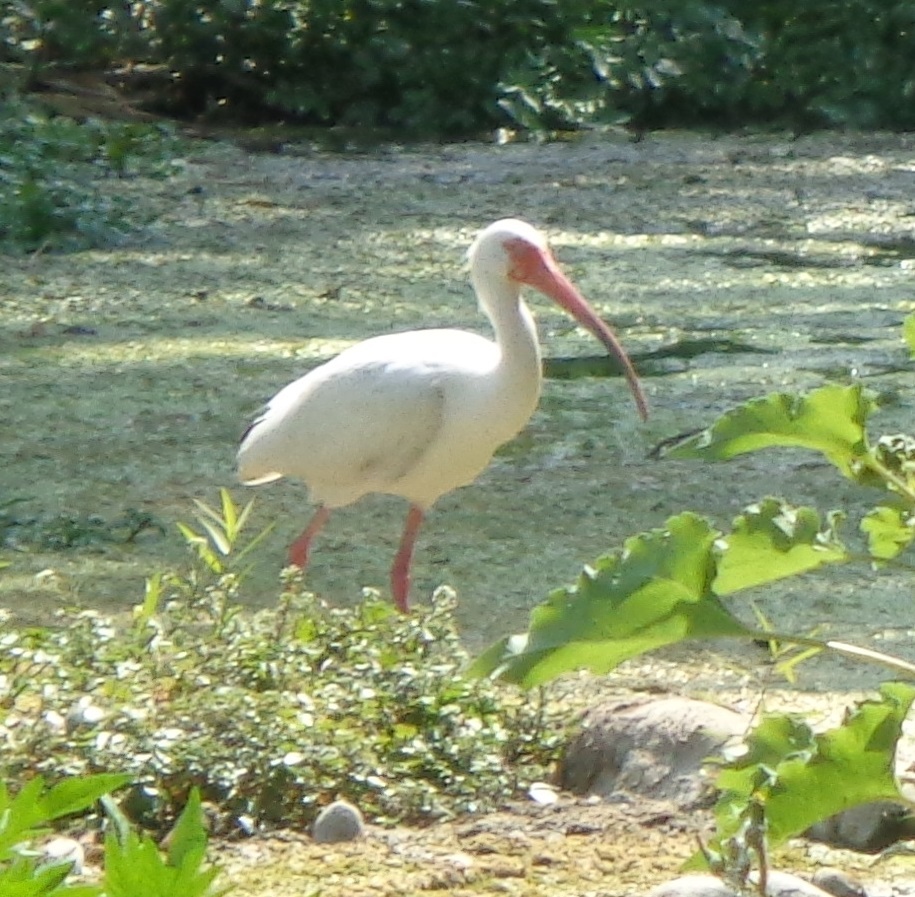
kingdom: Animalia
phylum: Chordata
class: Aves
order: Pelecaniformes
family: Threskiornithidae
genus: Eudocimus
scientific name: Eudocimus albus
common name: White ibis
